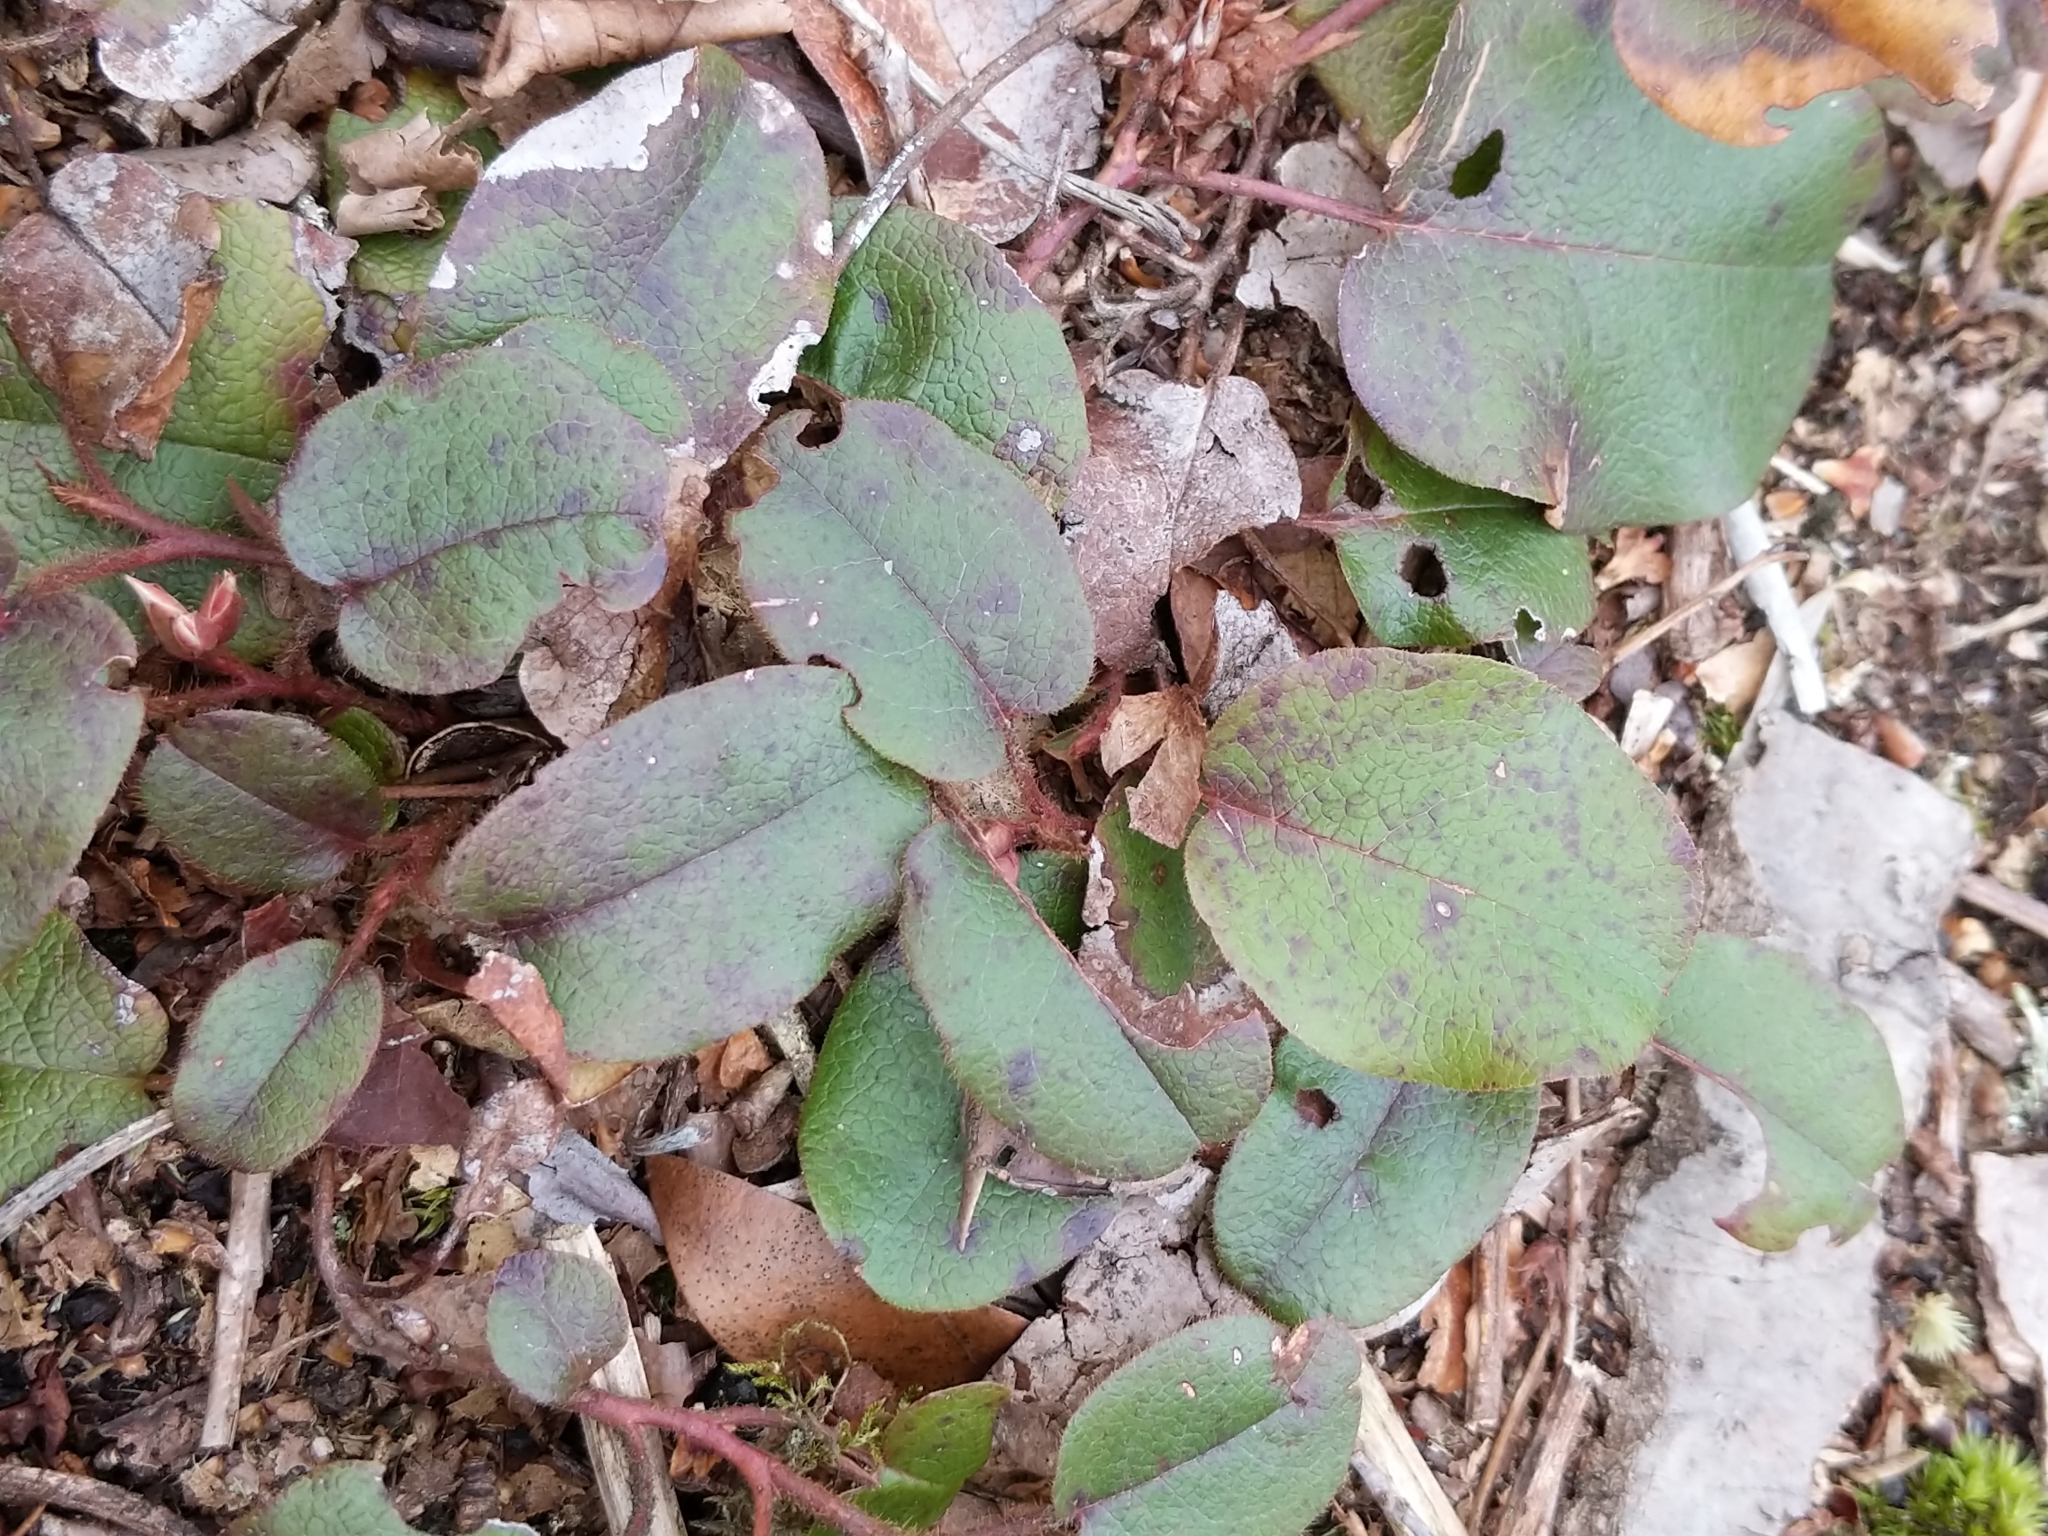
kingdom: Plantae
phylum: Tracheophyta
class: Magnoliopsida
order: Ericales
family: Ericaceae
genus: Epigaea
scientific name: Epigaea repens
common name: Gravelroot
